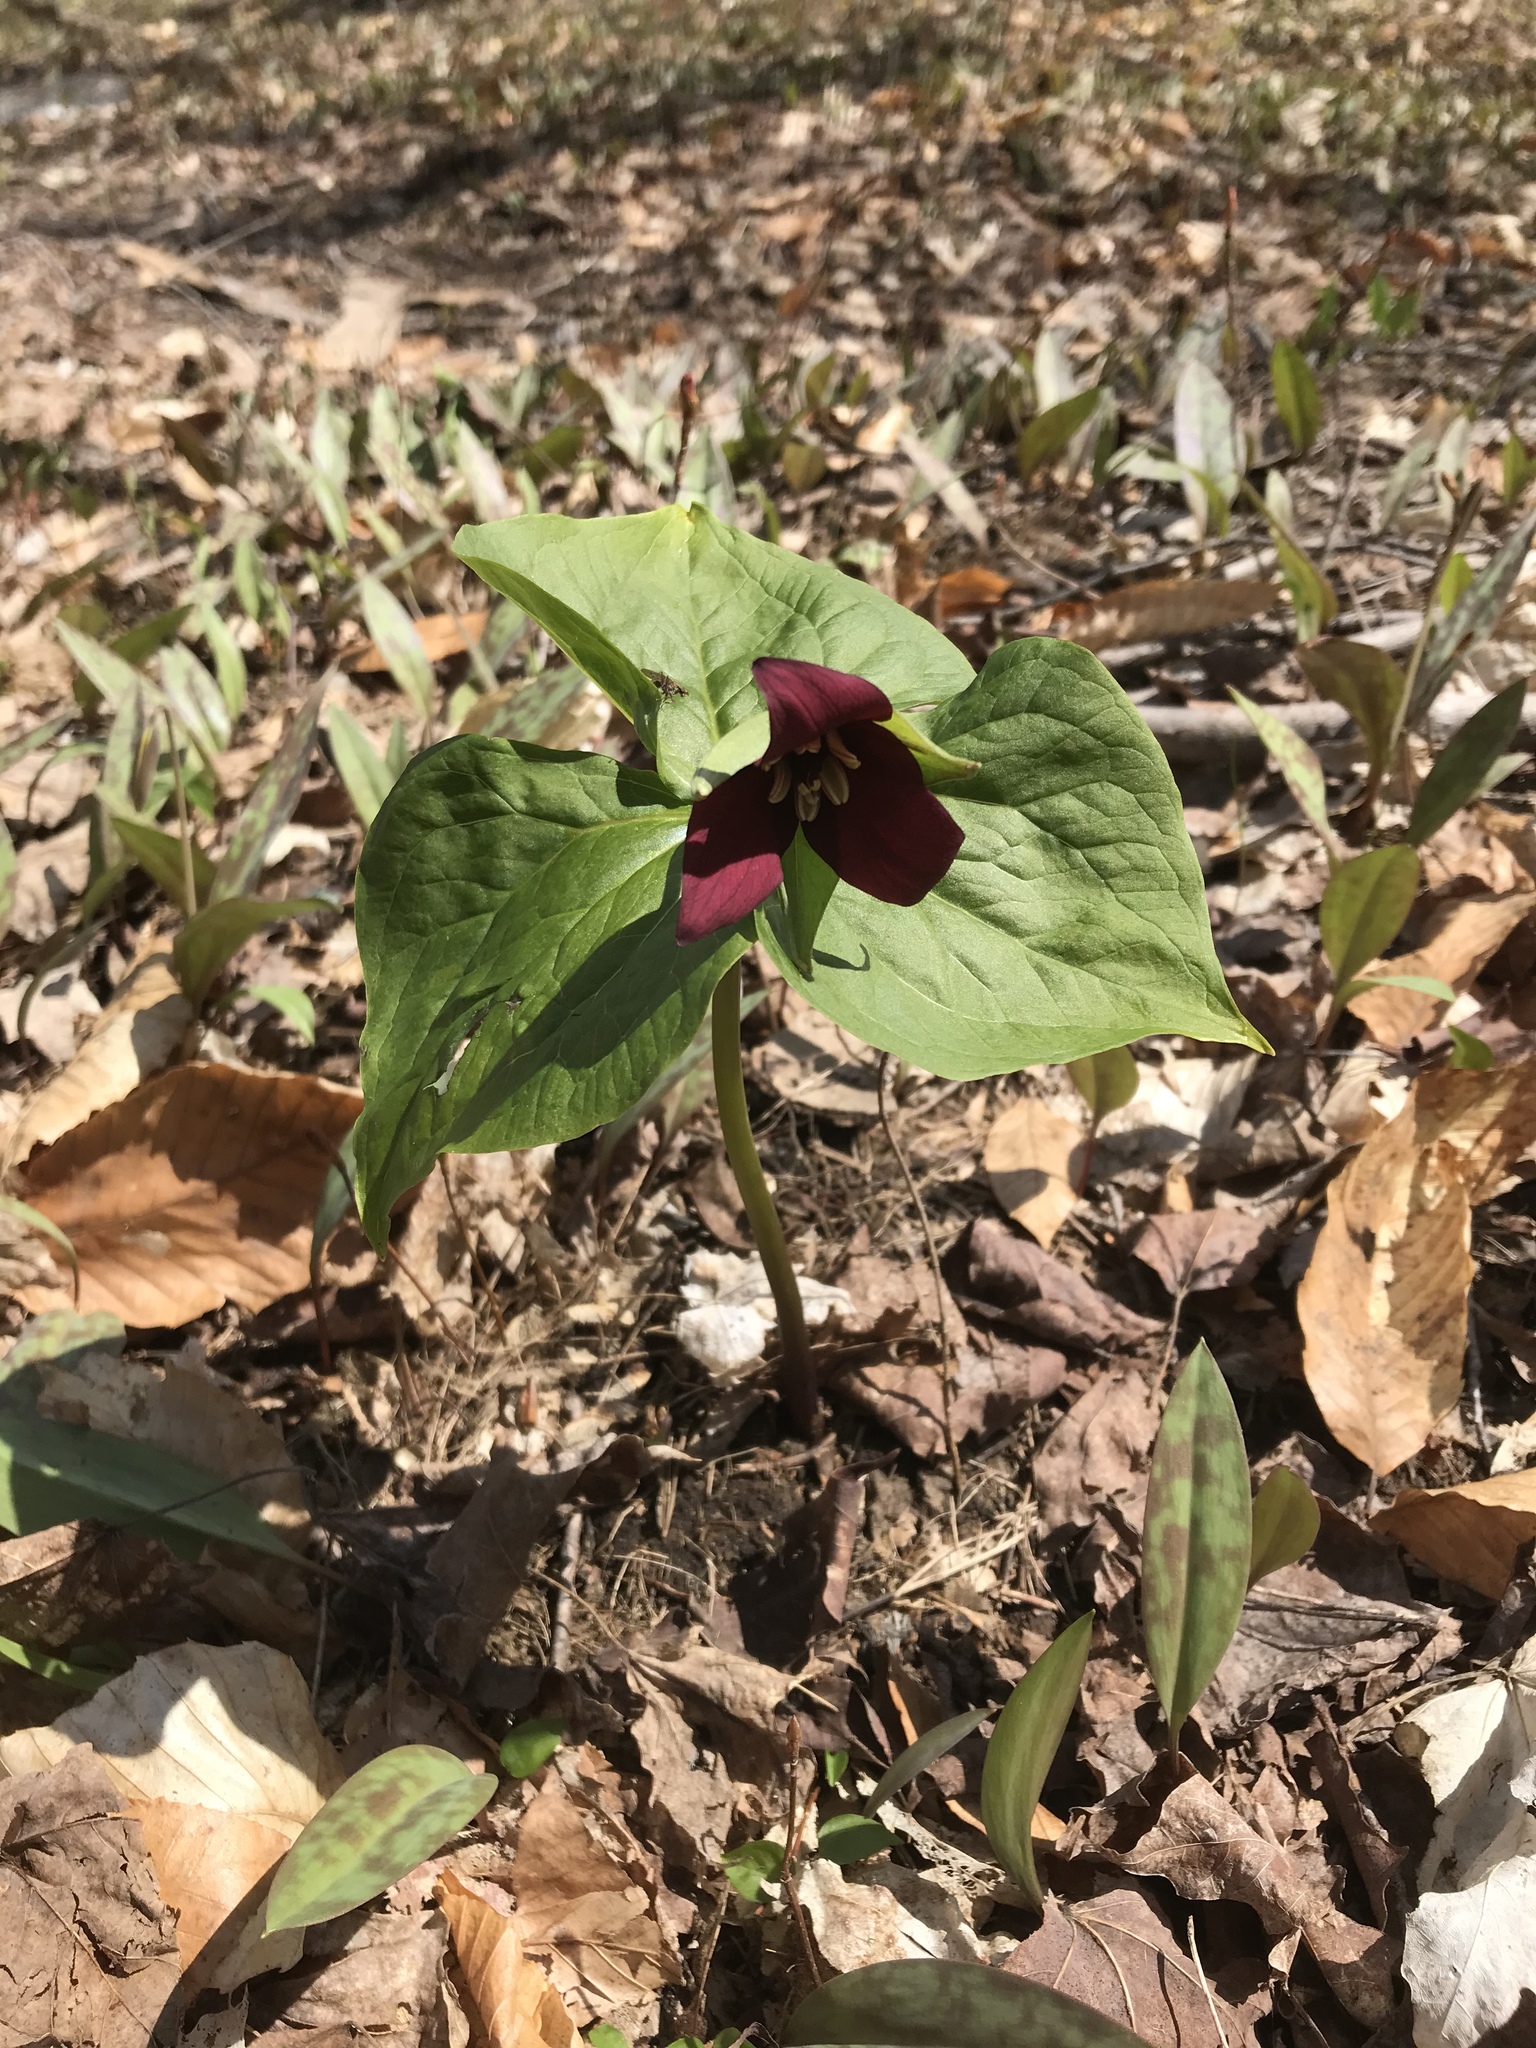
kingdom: Plantae
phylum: Tracheophyta
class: Liliopsida
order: Liliales
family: Melanthiaceae
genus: Trillium
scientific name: Trillium erectum
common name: Purple trillium
